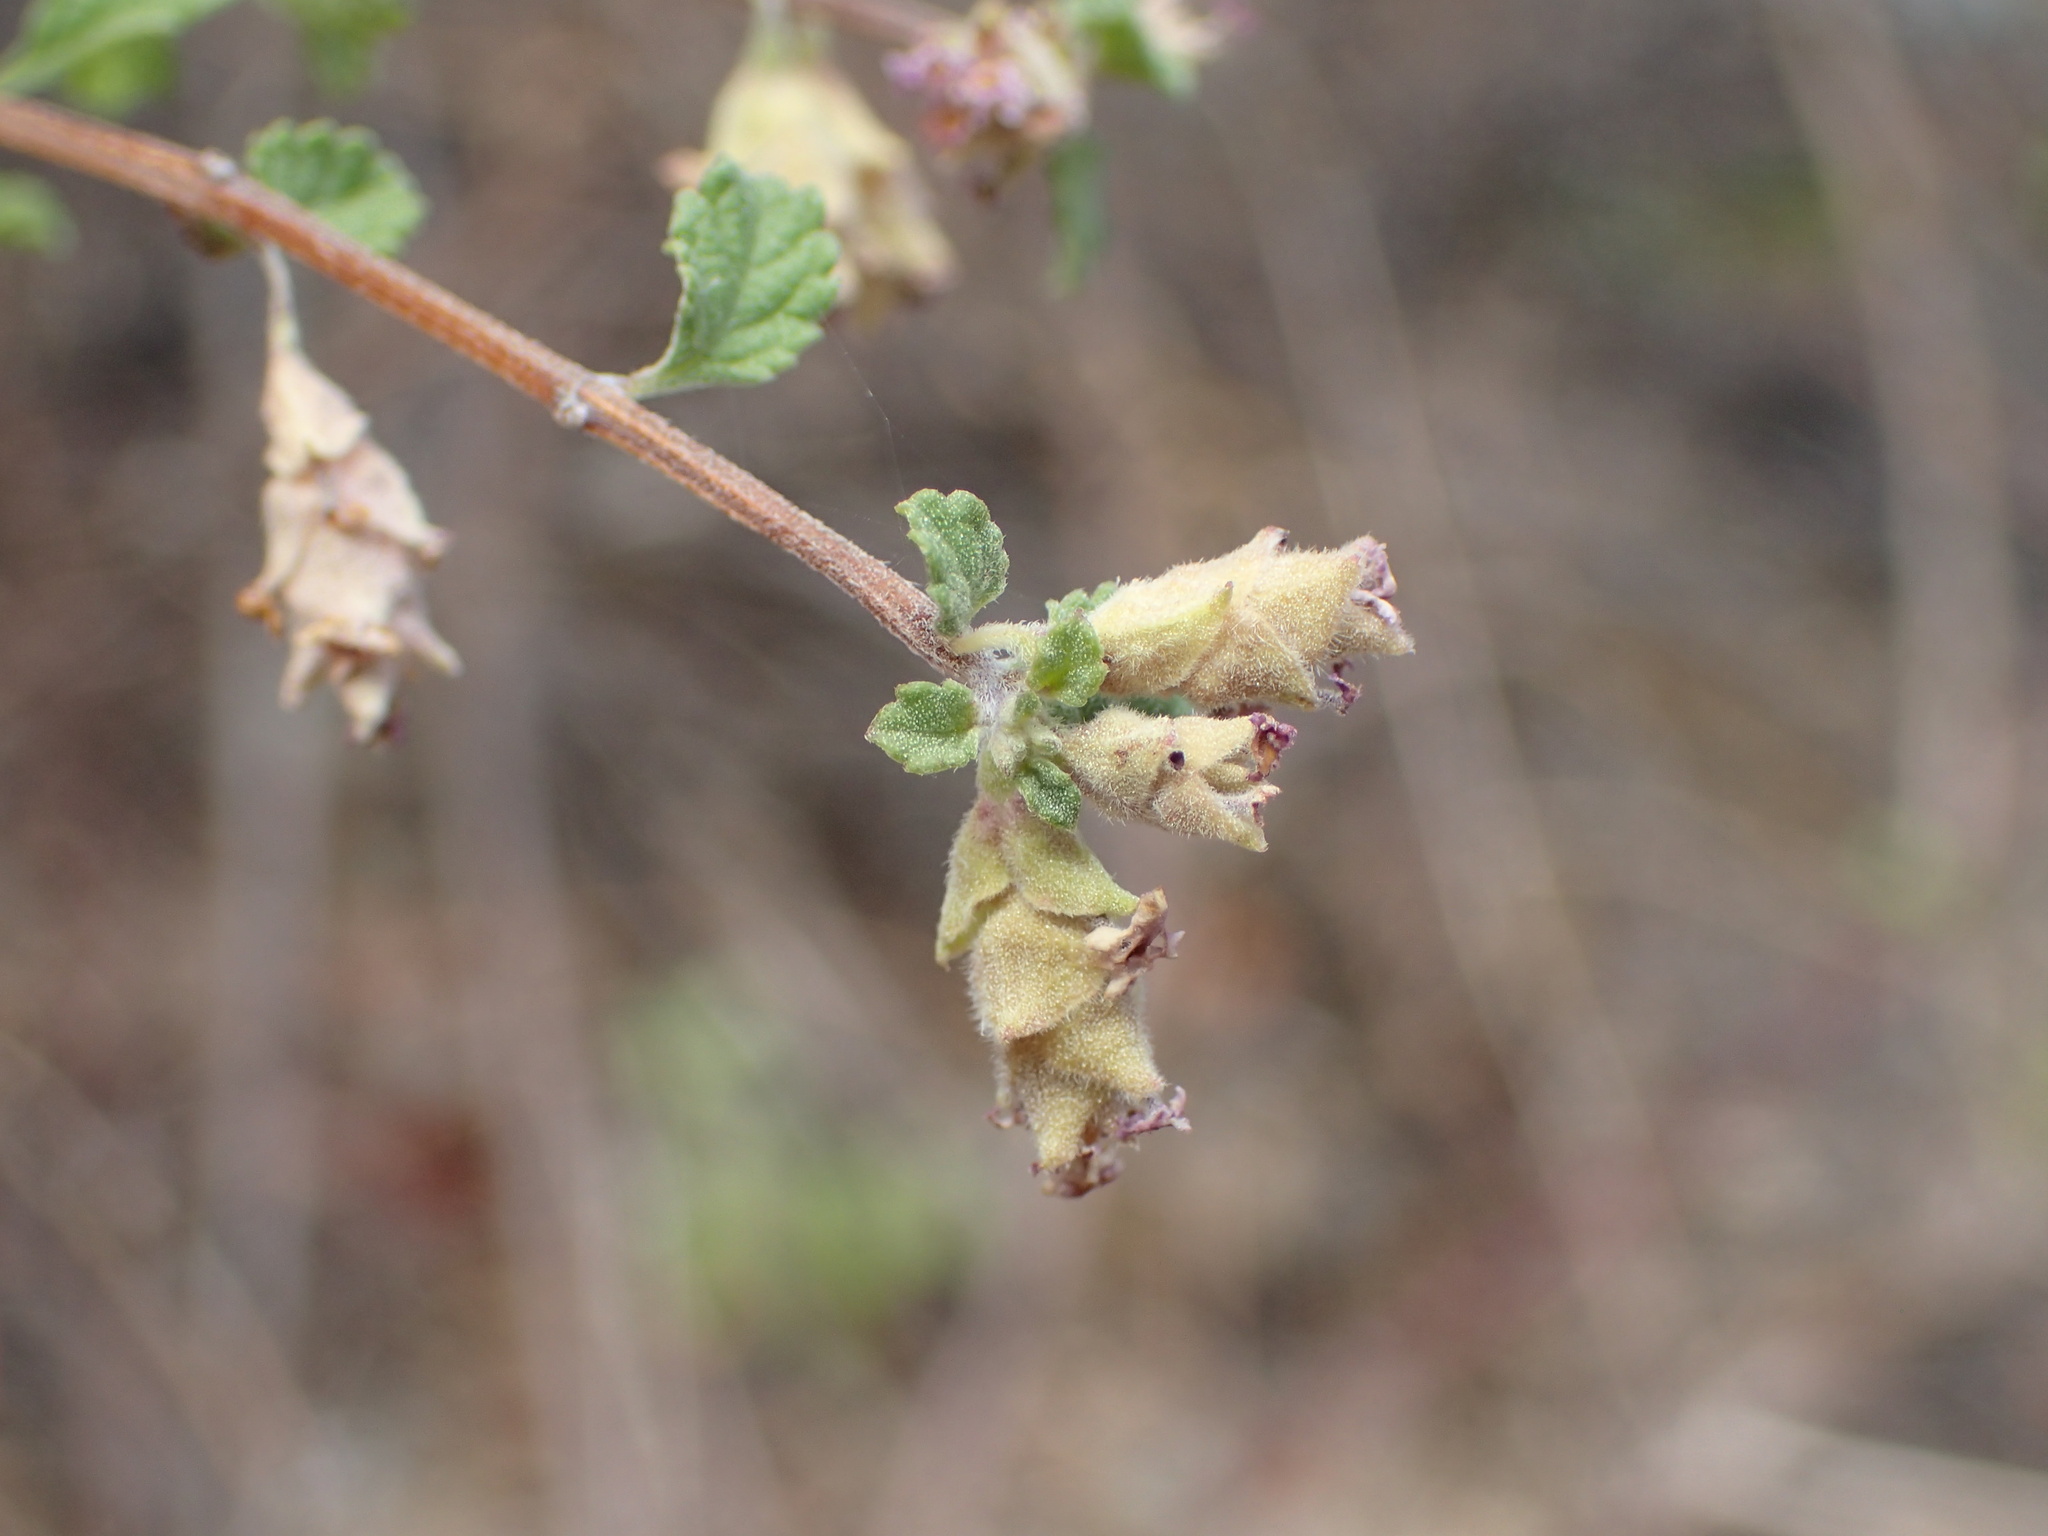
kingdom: Plantae
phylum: Tracheophyta
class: Magnoliopsida
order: Lamiales
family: Verbenaceae
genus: Lippia
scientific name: Lippia origanoides
